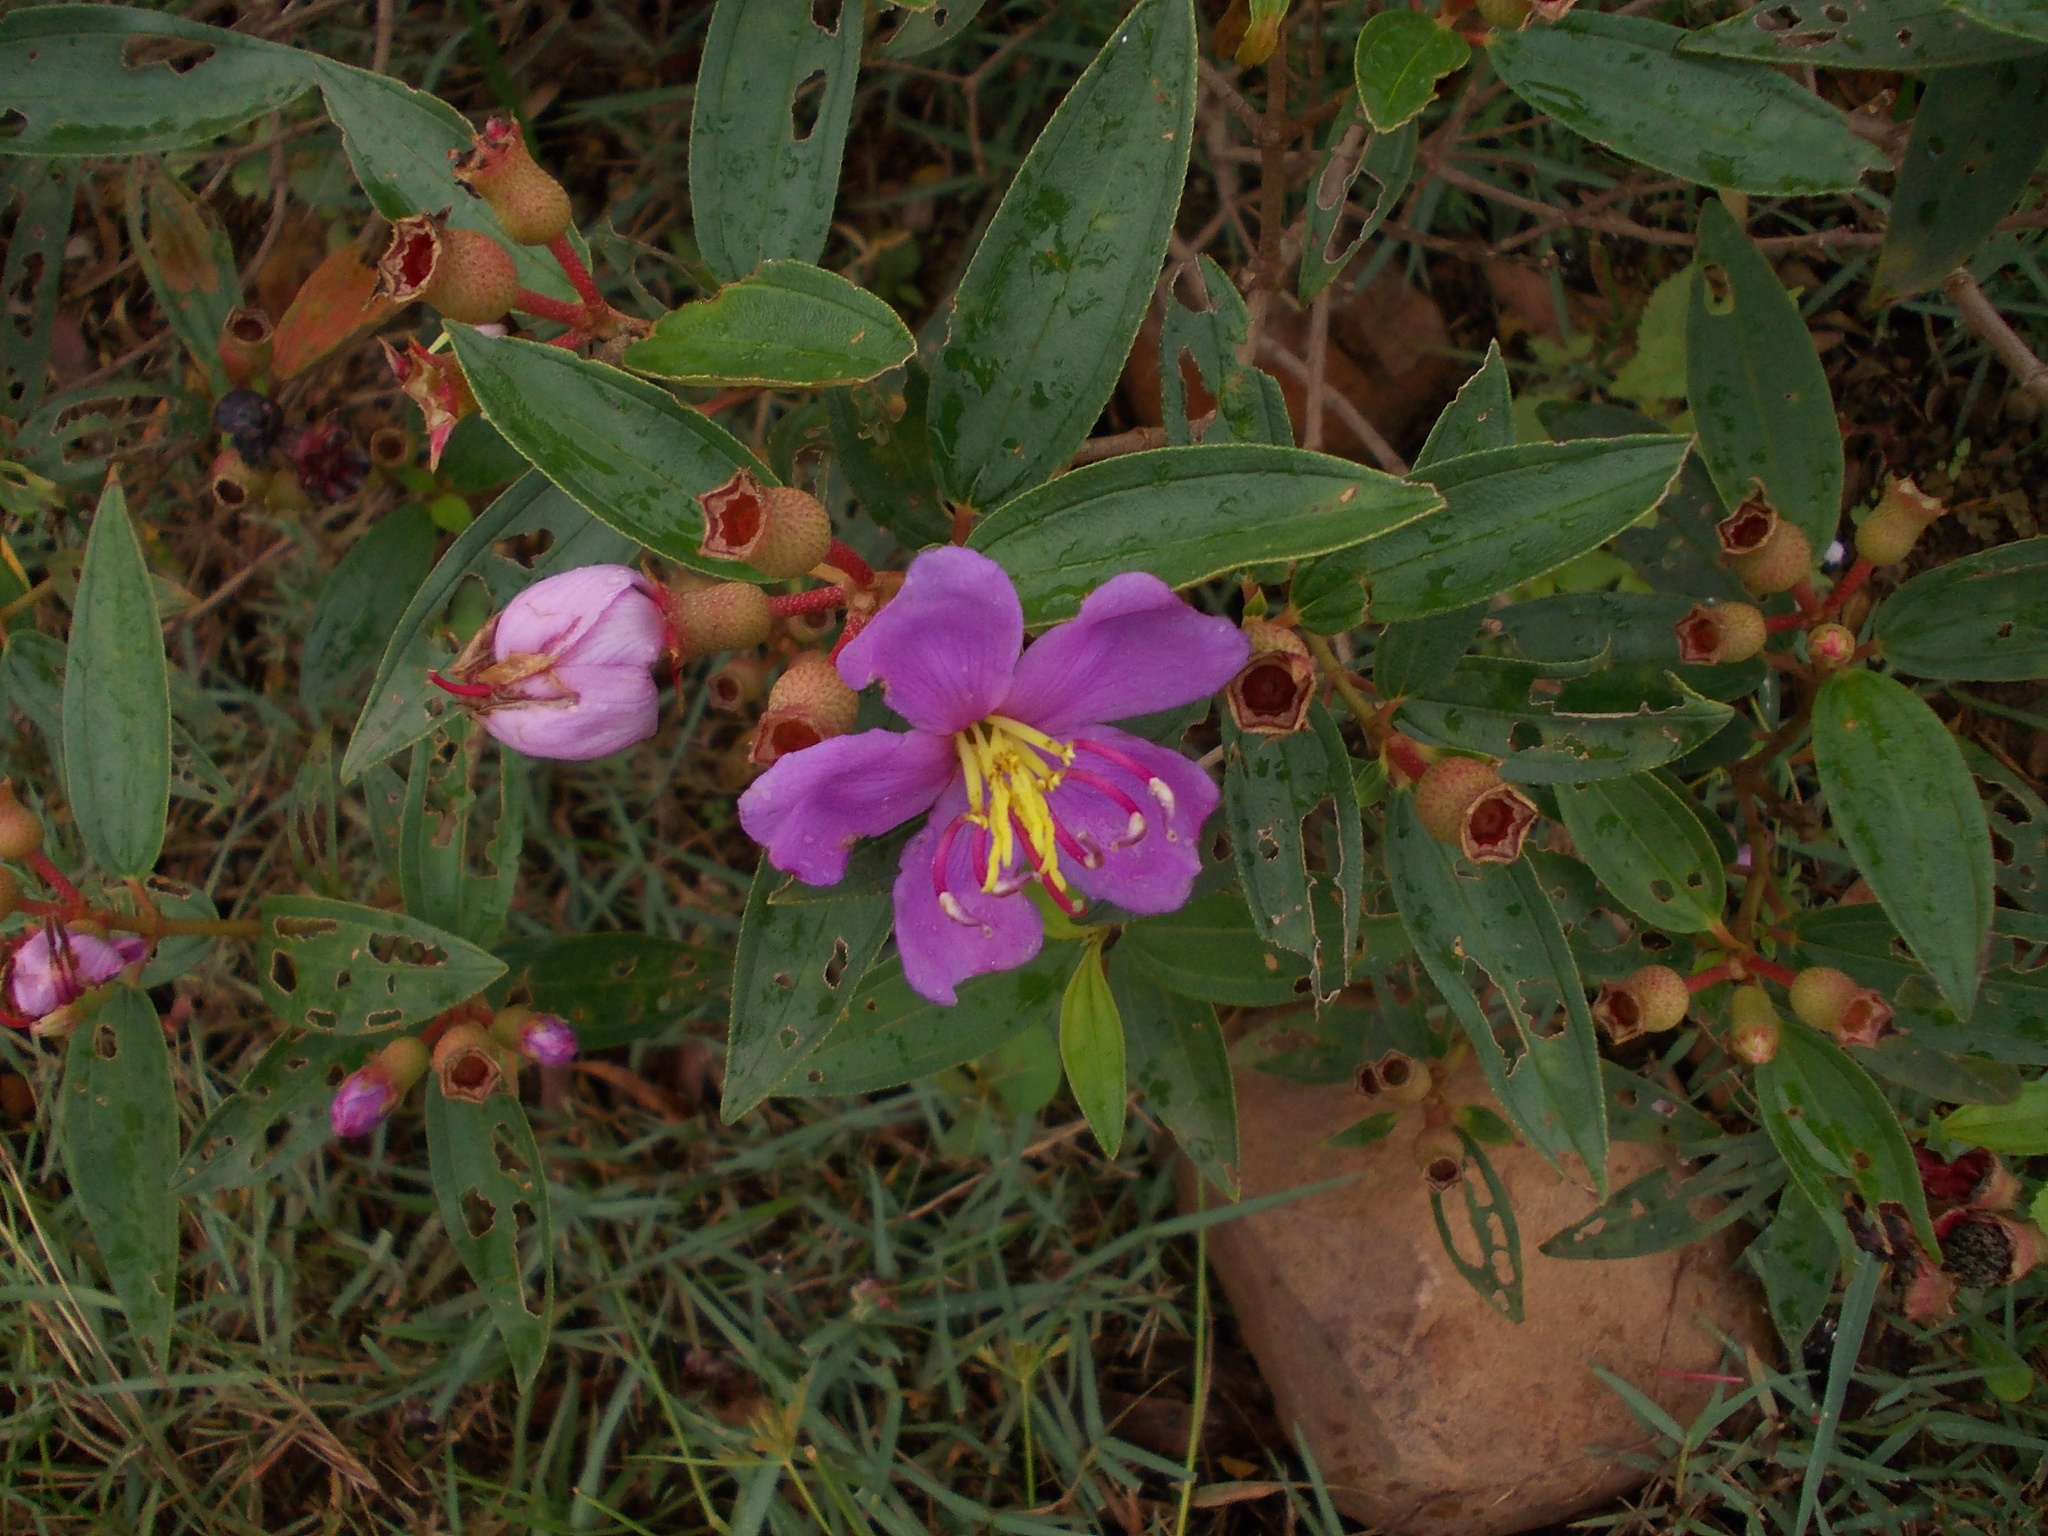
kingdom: Plantae
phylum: Tracheophyta
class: Magnoliopsida
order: Myrtales
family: Melastomataceae
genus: Melastoma
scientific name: Melastoma malabathricum
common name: Indian-rhododendron
